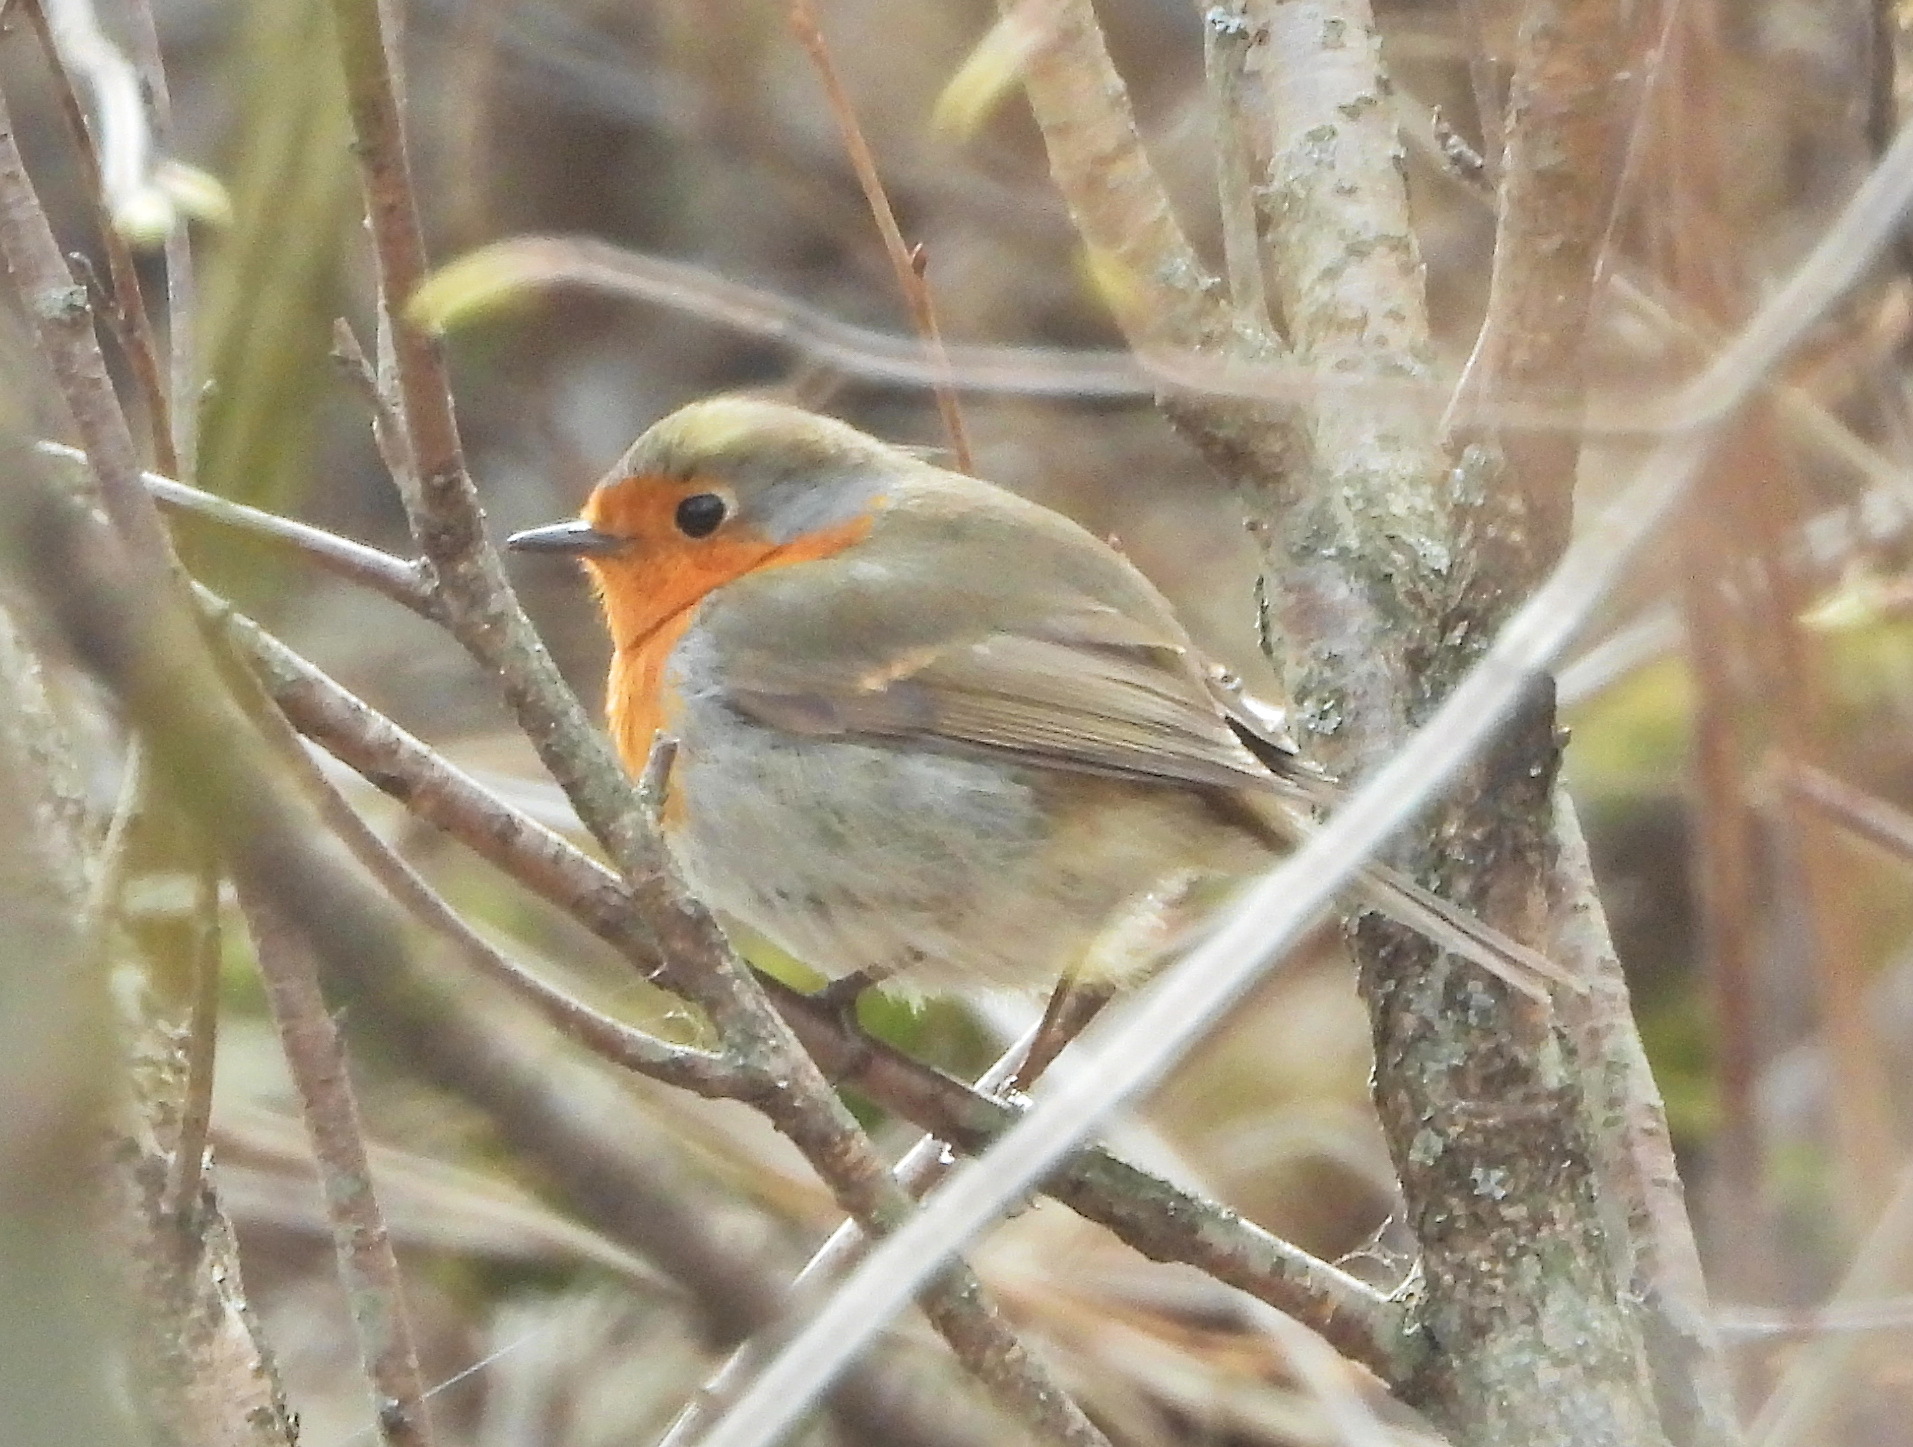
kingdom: Animalia
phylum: Chordata
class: Aves
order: Passeriformes
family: Muscicapidae
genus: Erithacus
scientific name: Erithacus rubecula
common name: European robin
